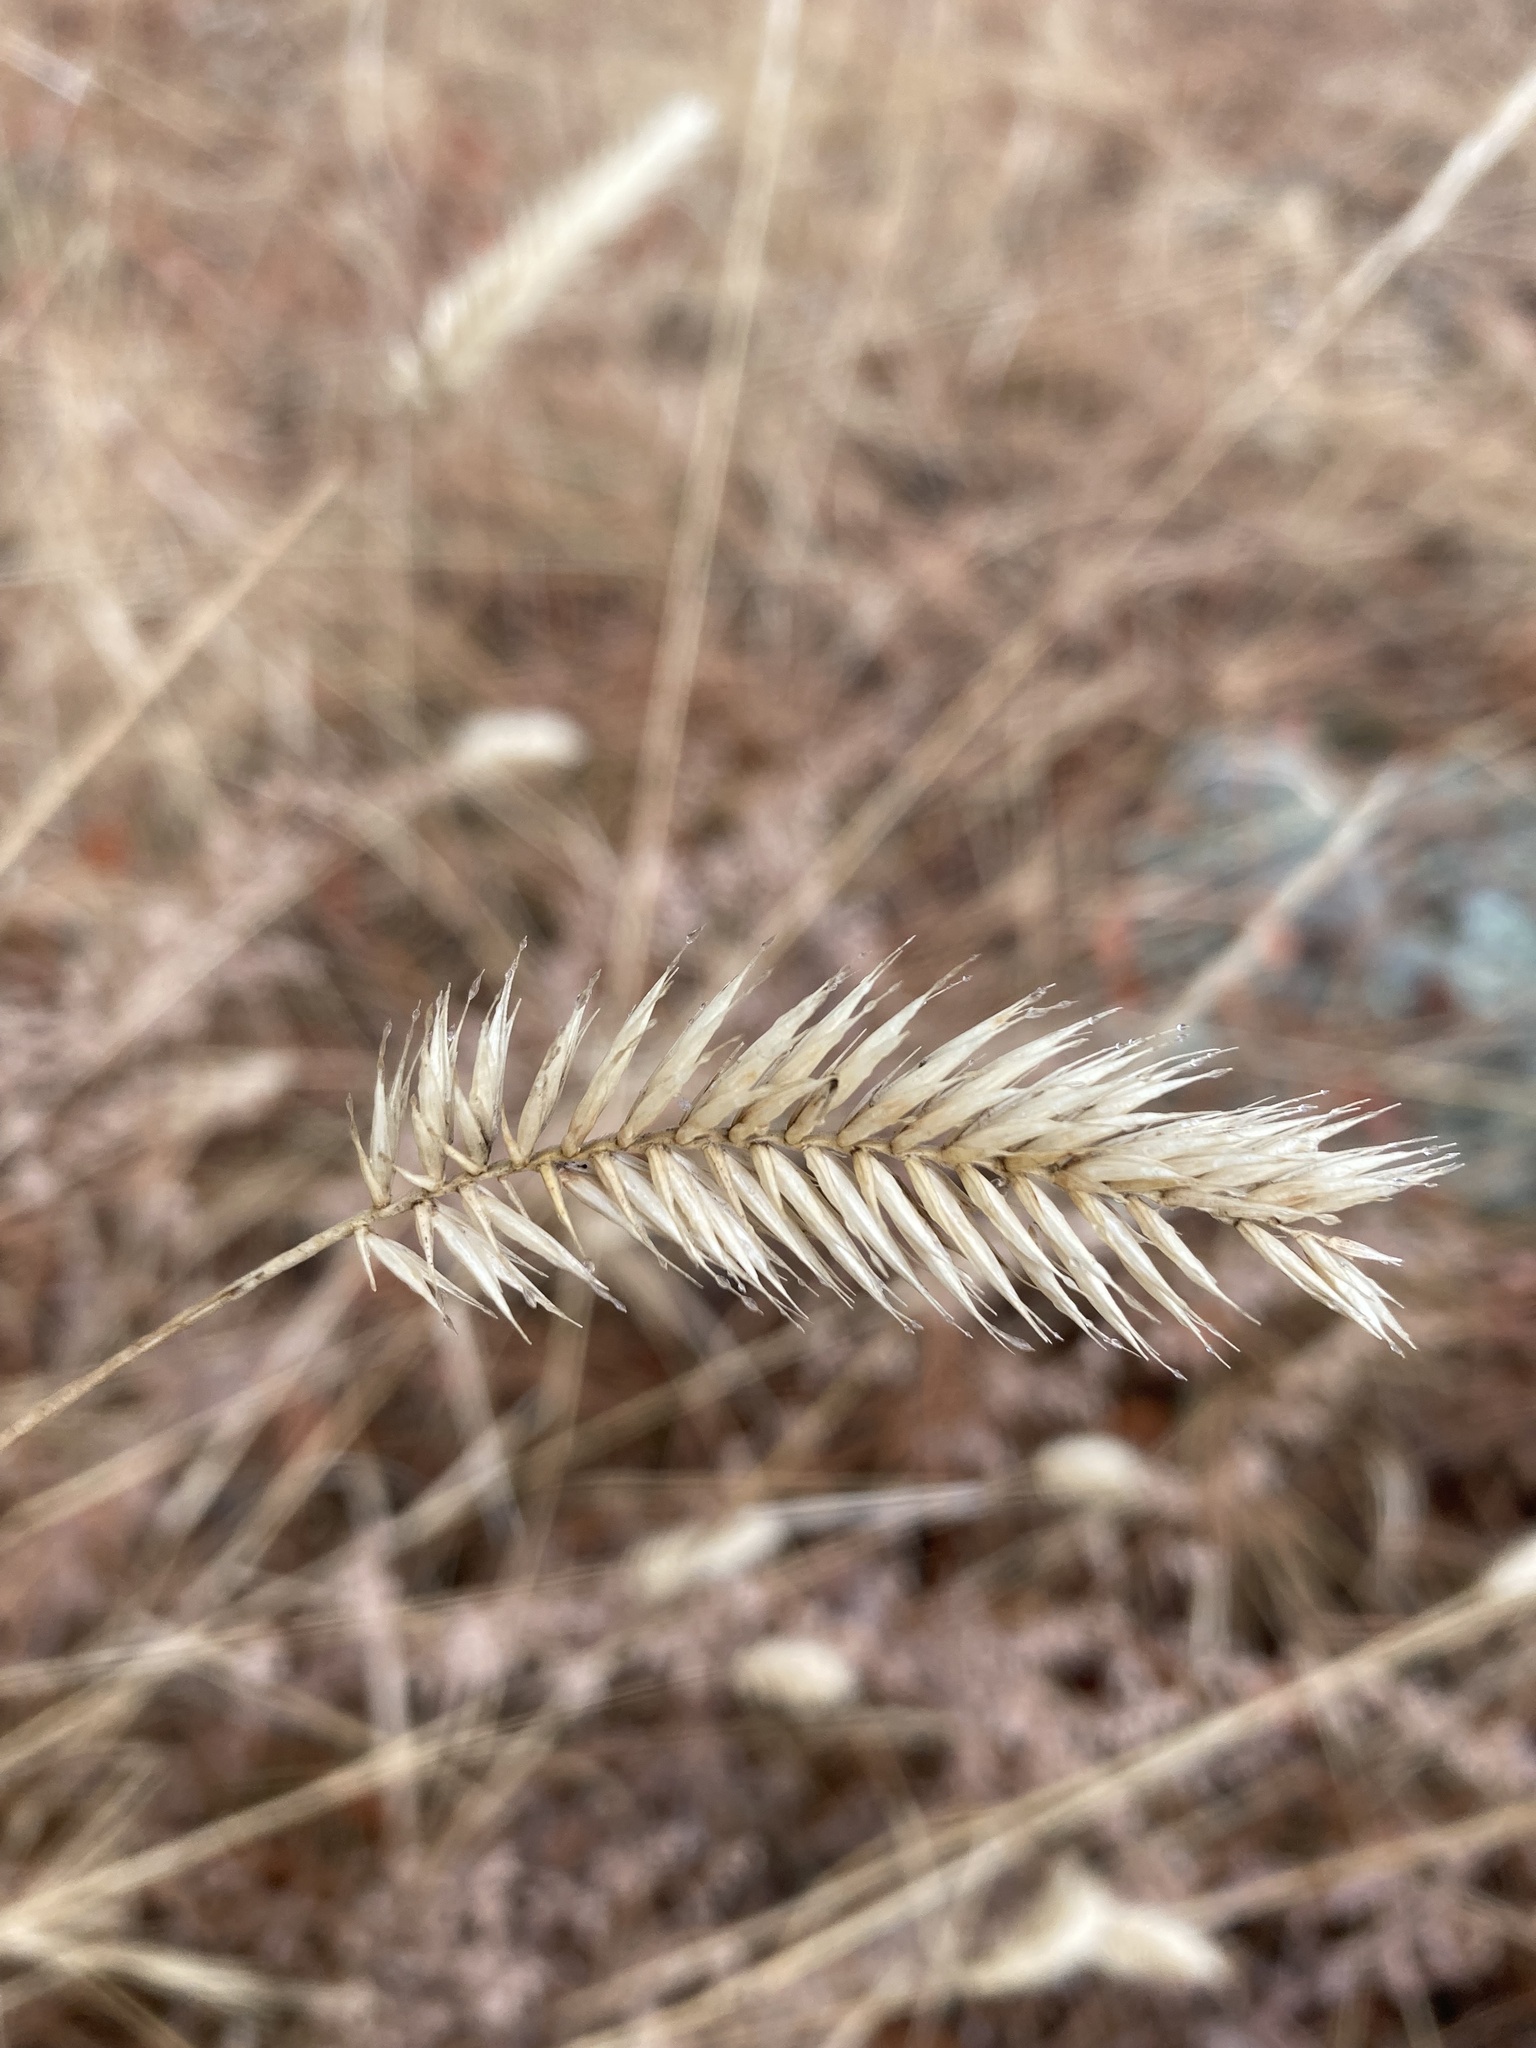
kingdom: Plantae
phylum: Tracheophyta
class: Liliopsida
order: Poales
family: Poaceae
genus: Agropyron
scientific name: Agropyron cristatum
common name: Crested wheatgrass
